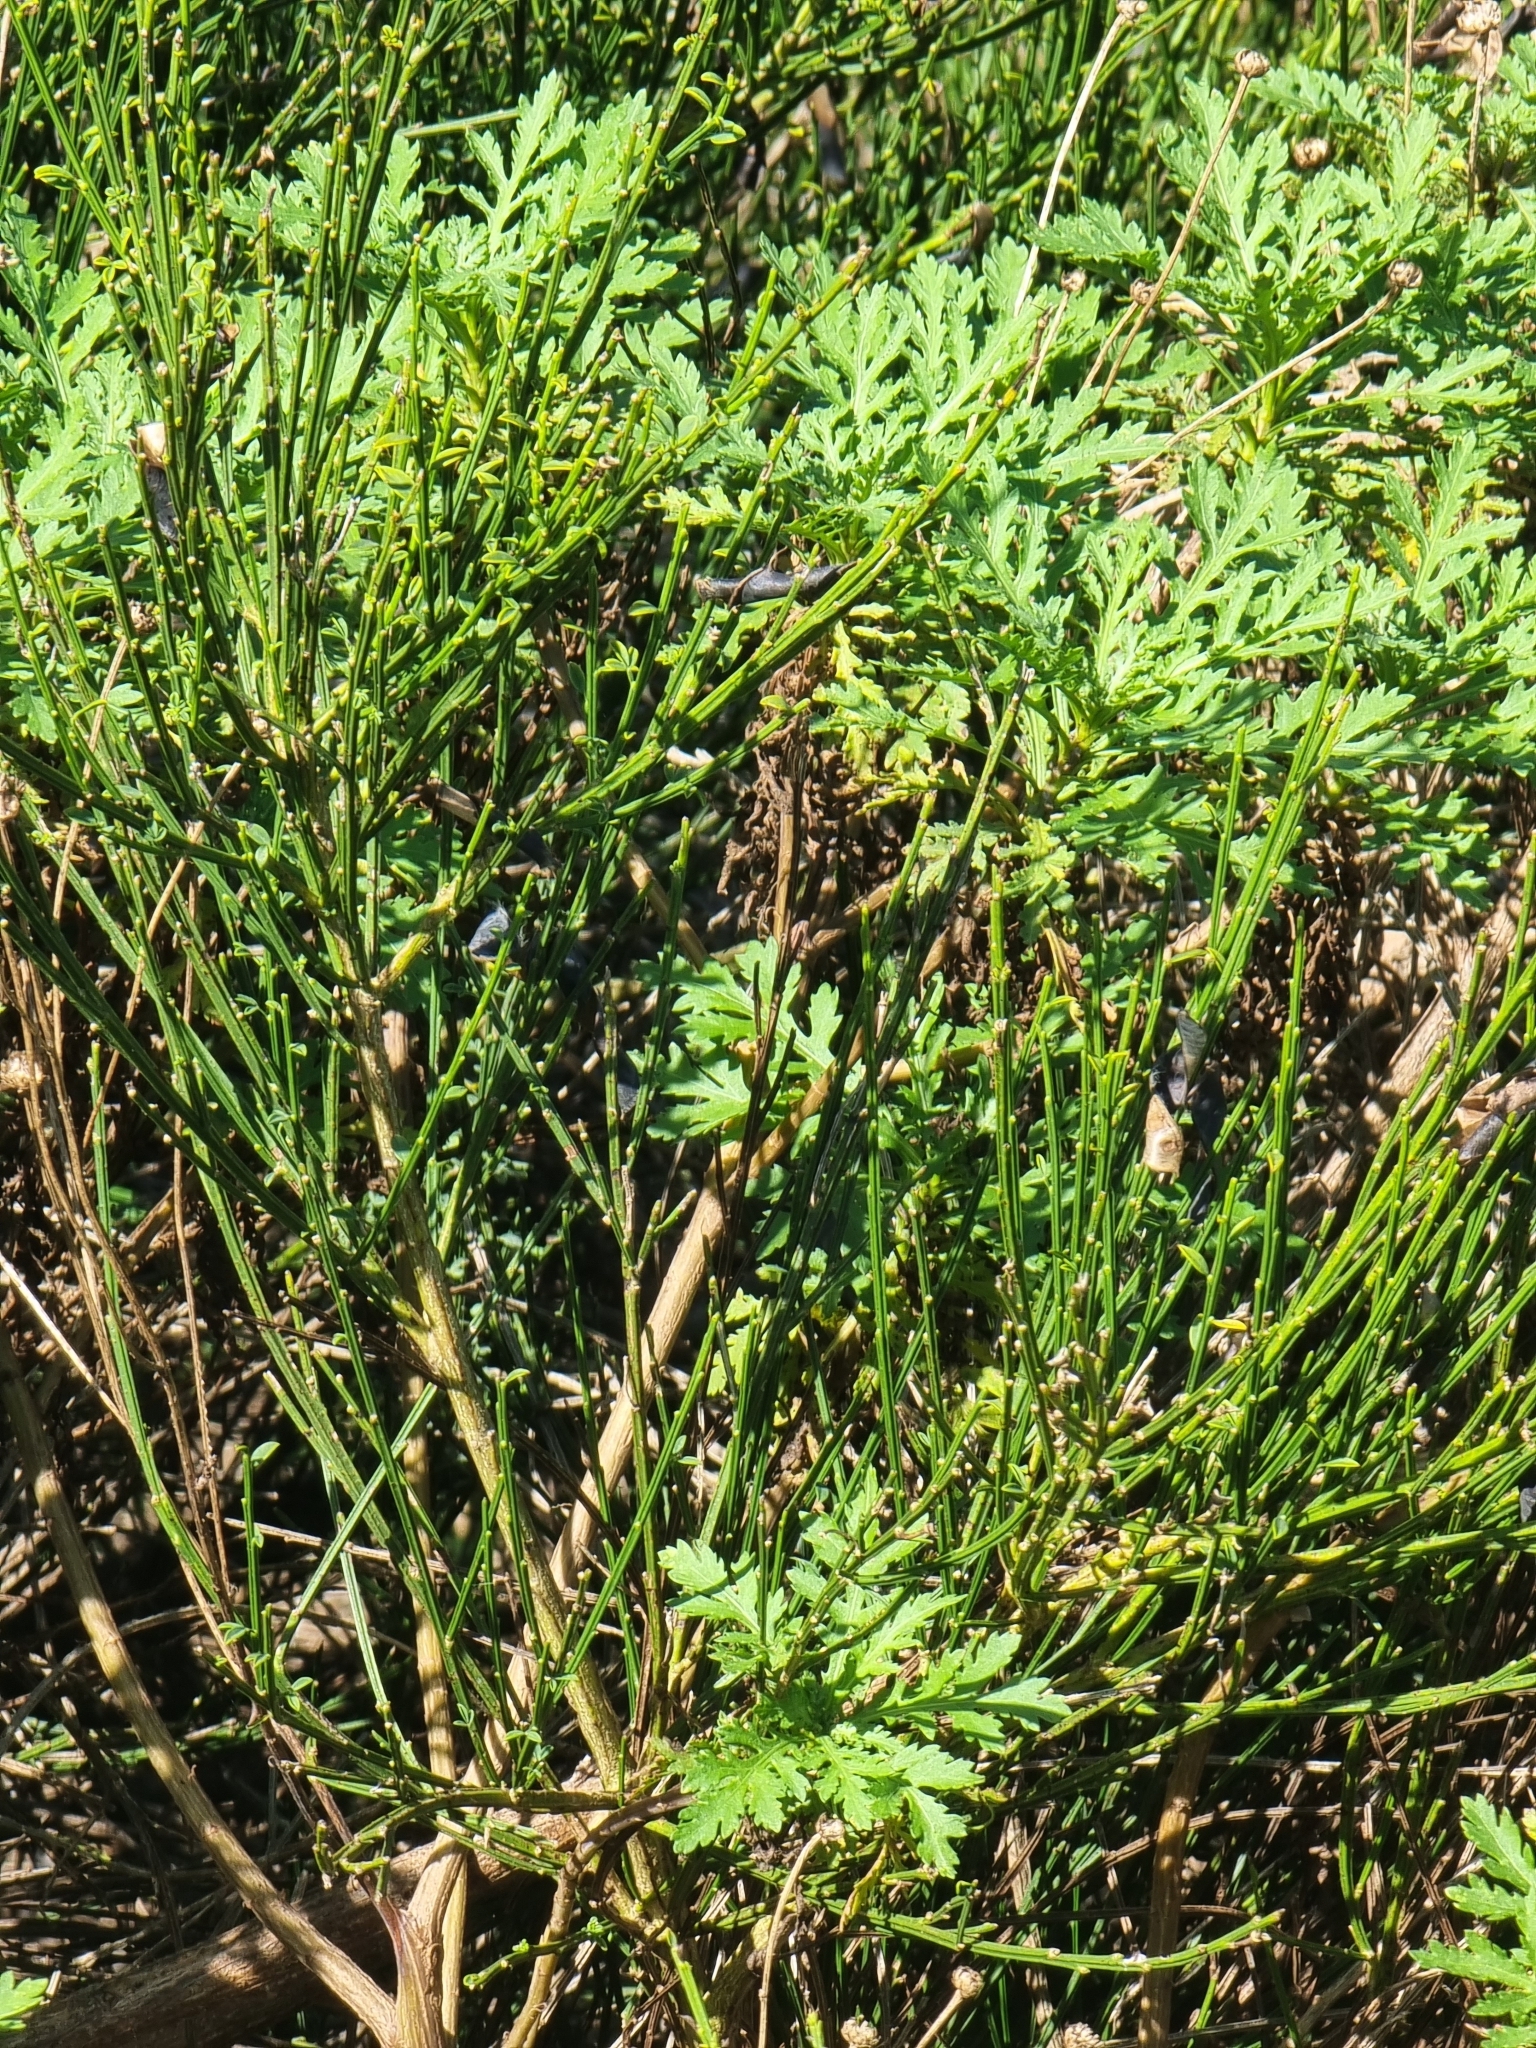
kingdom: Plantae
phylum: Tracheophyta
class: Magnoliopsida
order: Asterales
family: Asteraceae
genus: Argyranthemum
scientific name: Argyranthemum dissectum
